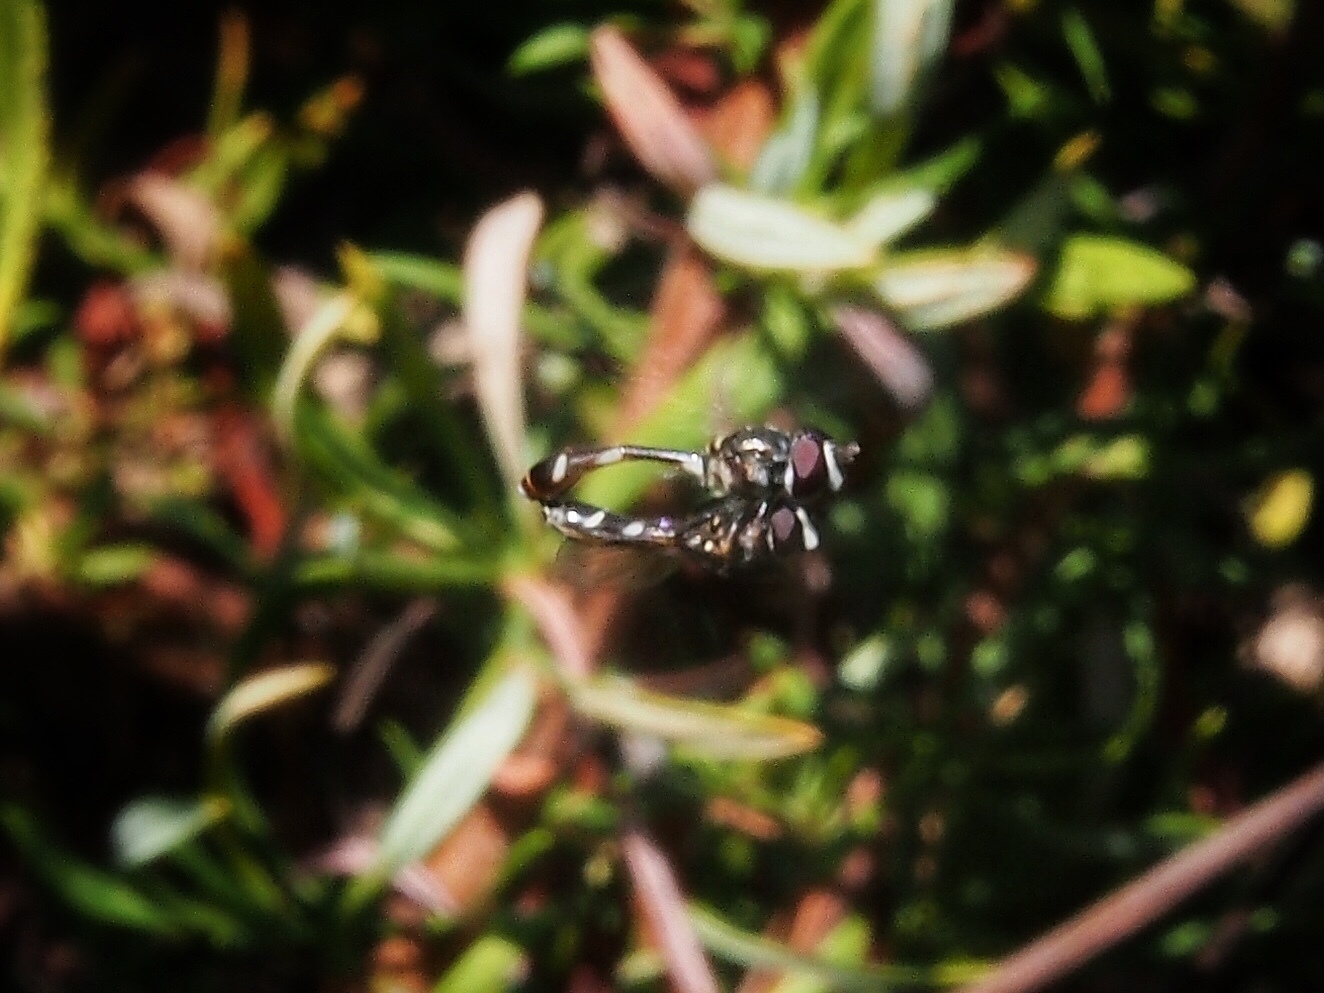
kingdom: Animalia
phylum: Arthropoda
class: Insecta
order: Diptera
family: Syrphidae
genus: Dioprosopa
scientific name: Dioprosopa clavatus
